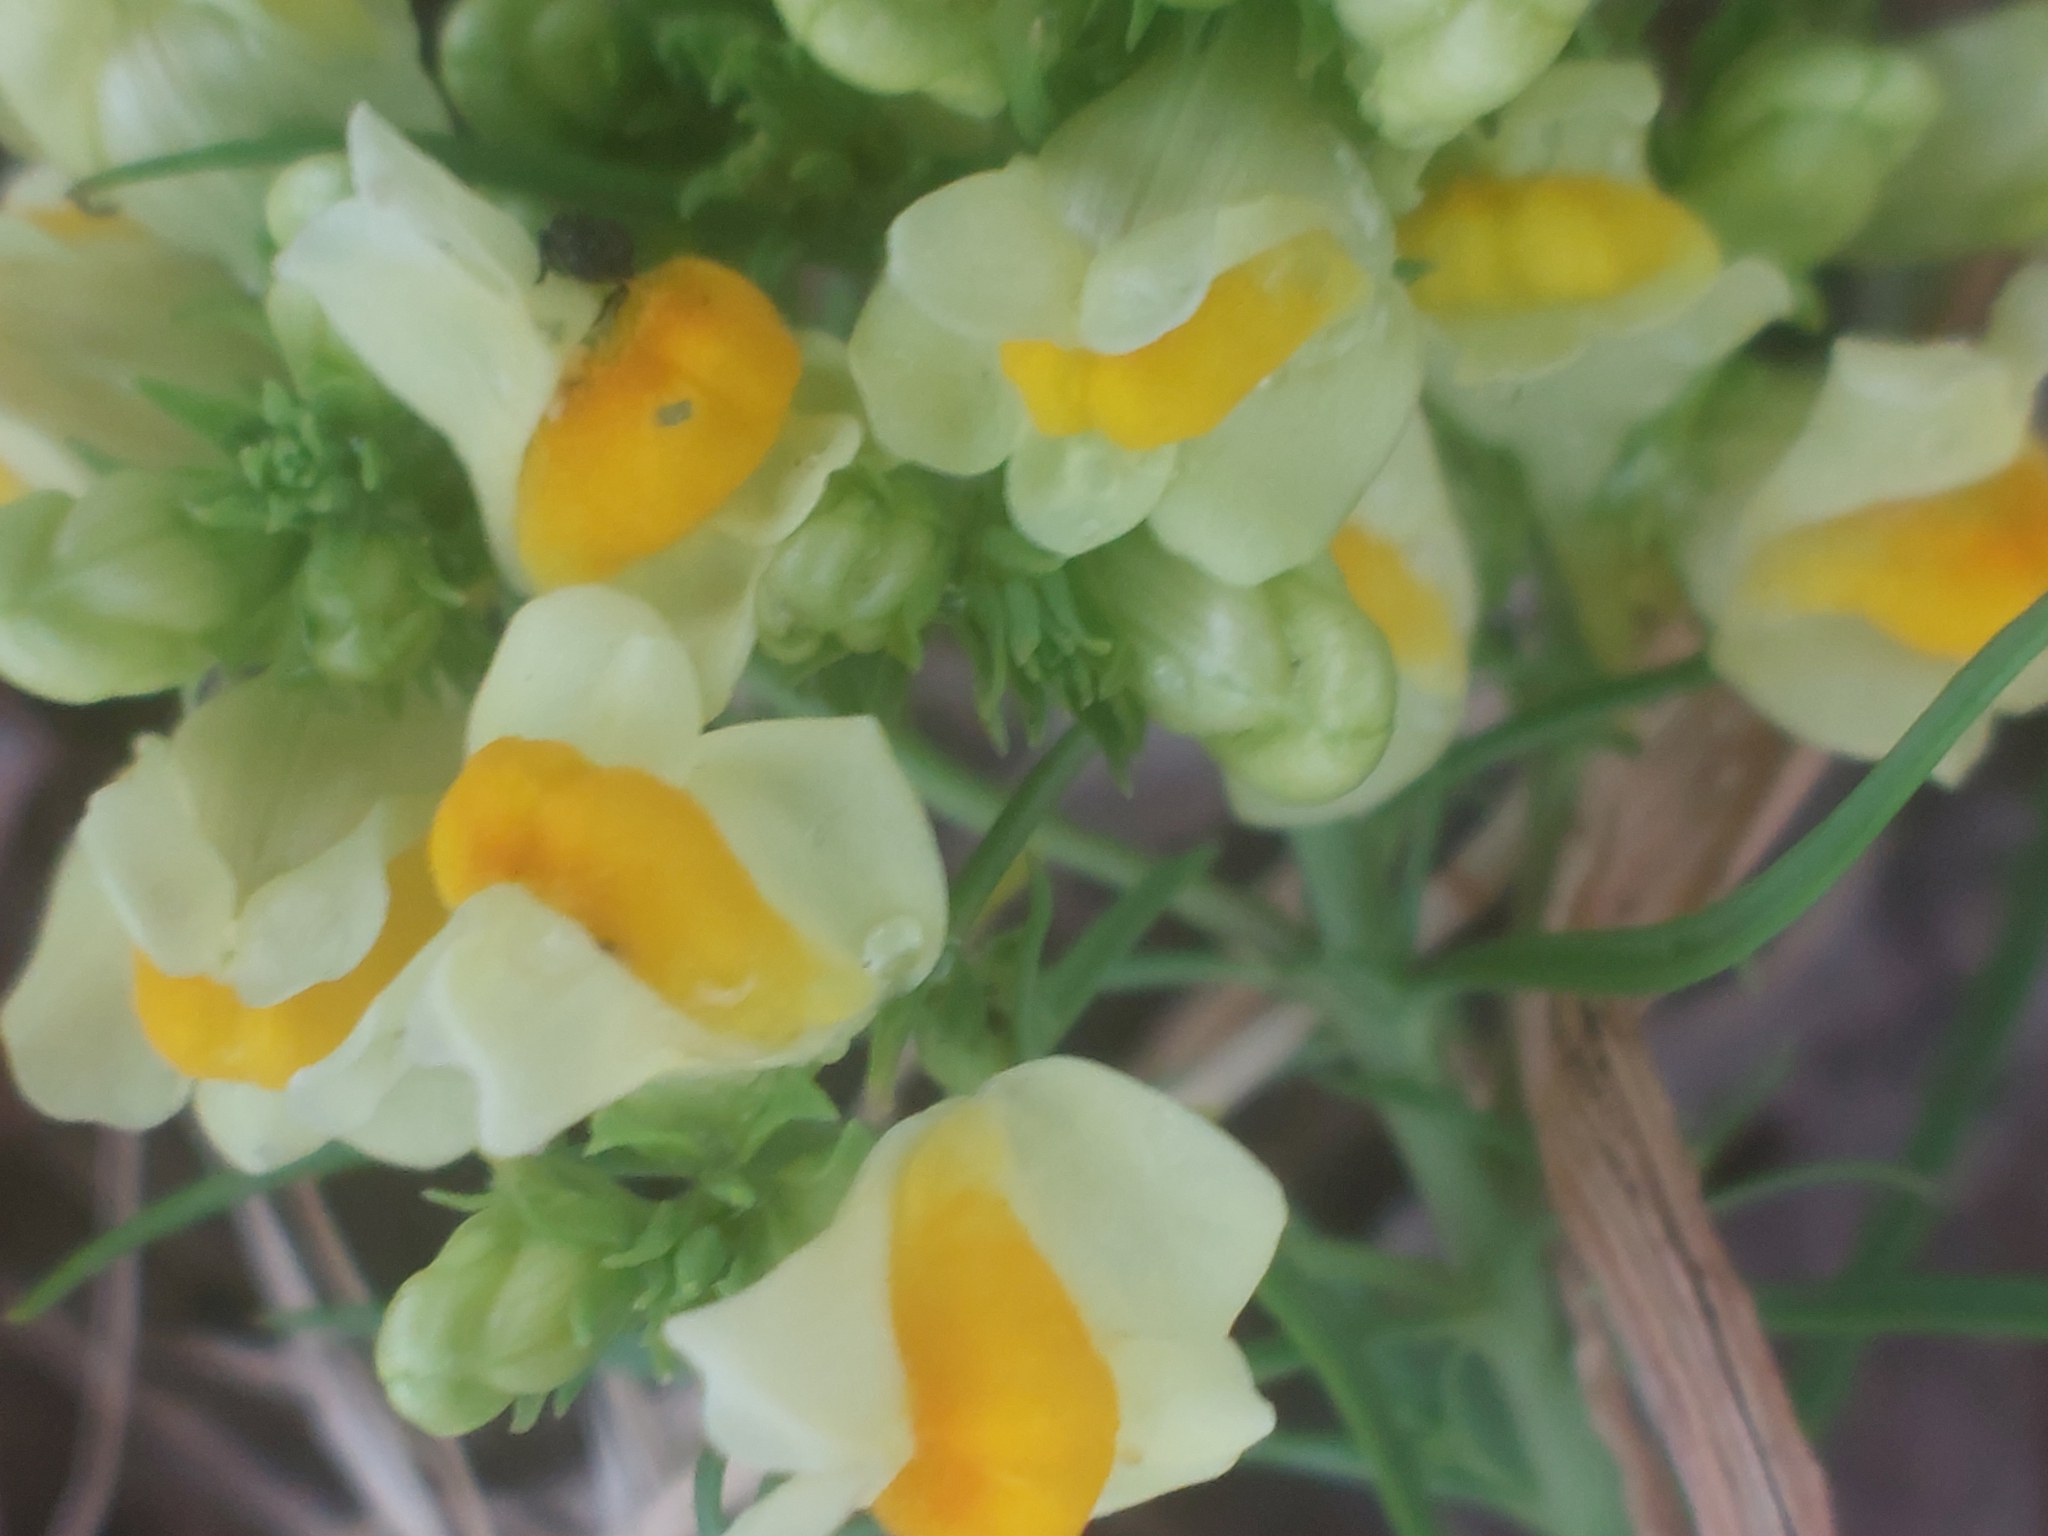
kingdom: Plantae
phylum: Tracheophyta
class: Magnoliopsida
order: Lamiales
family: Plantaginaceae
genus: Linaria
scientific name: Linaria vulgaris
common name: Butter and eggs
